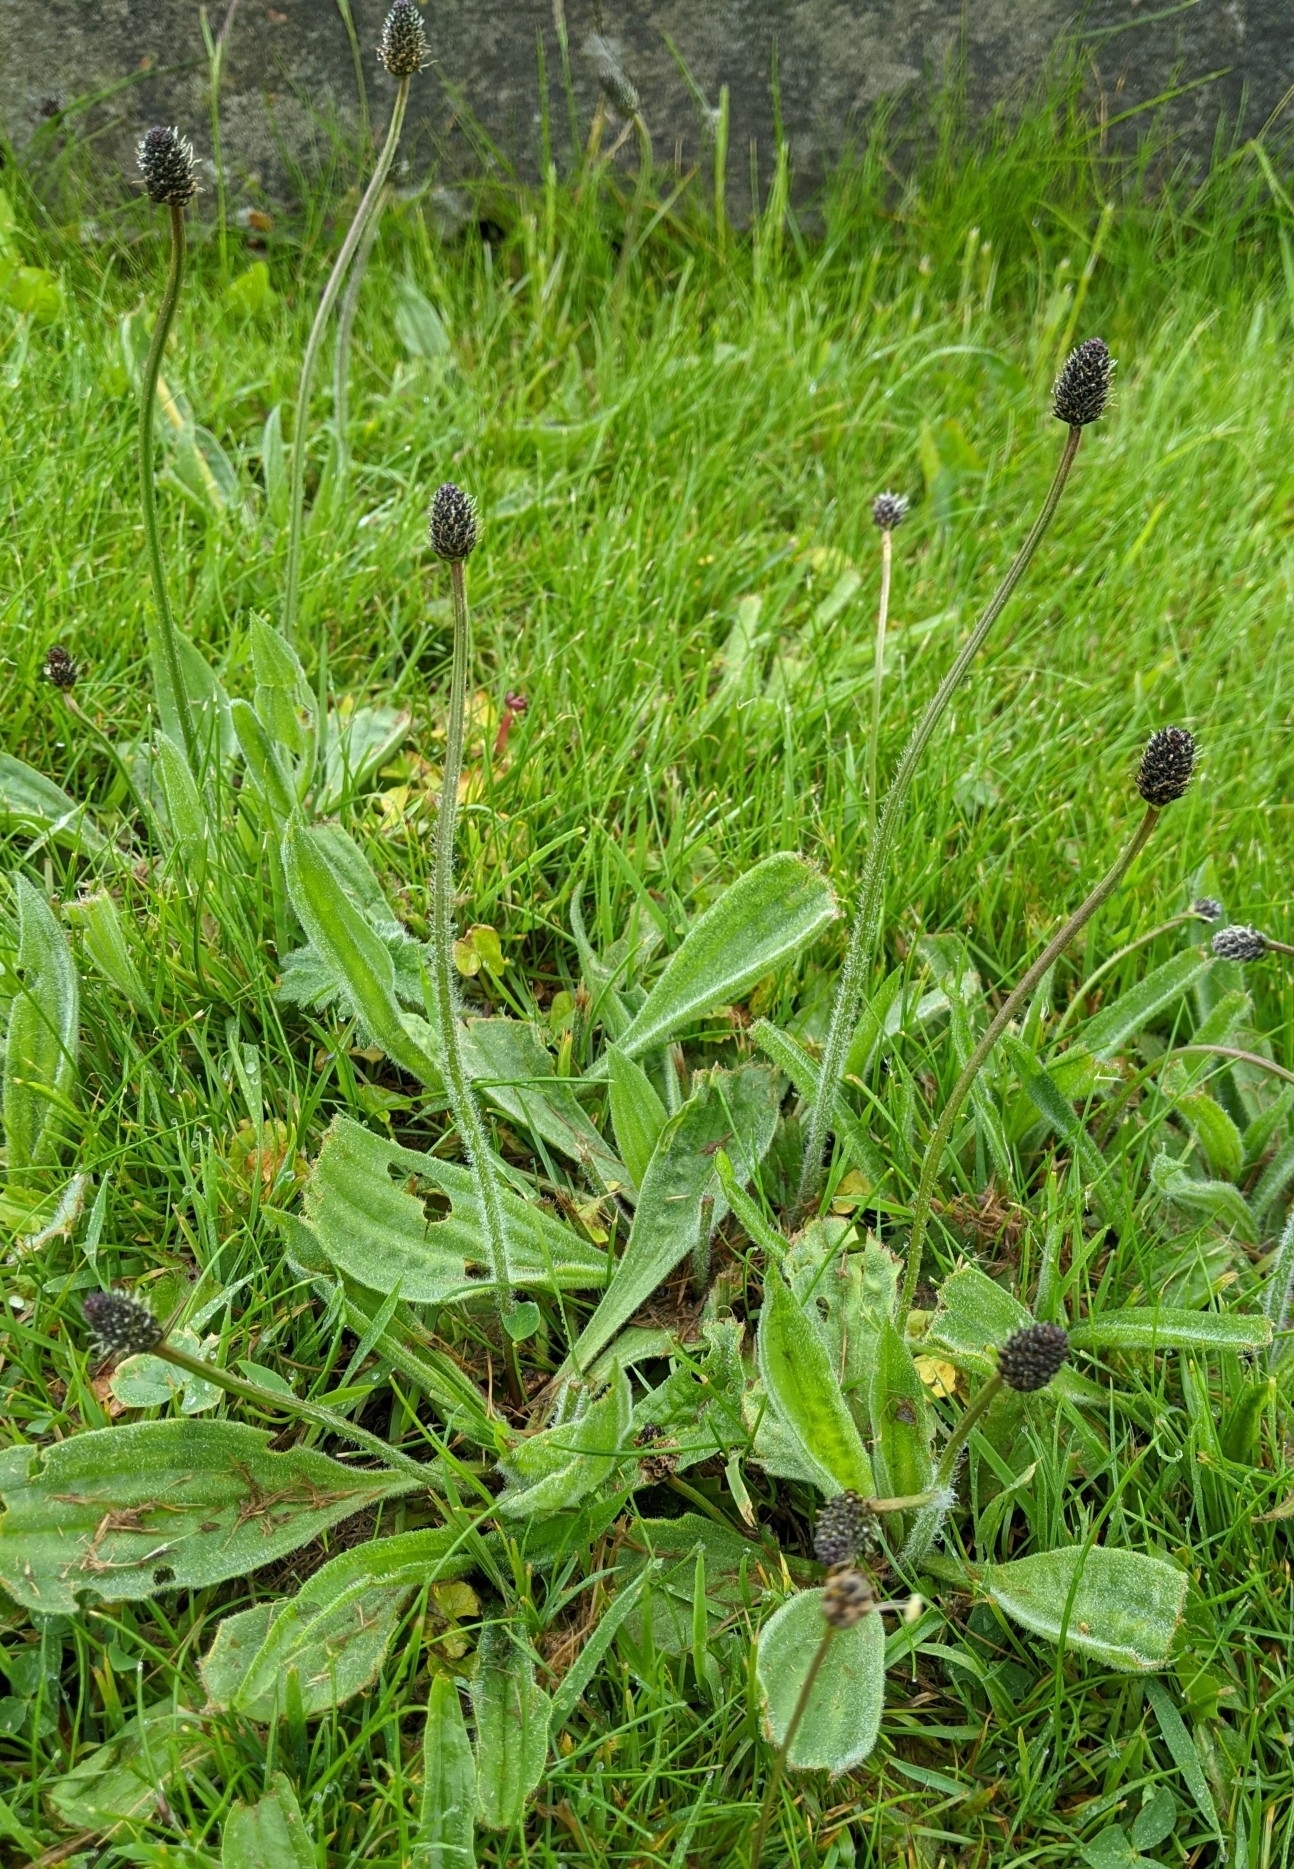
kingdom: Plantae
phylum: Tracheophyta
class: Magnoliopsida
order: Lamiales
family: Plantaginaceae
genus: Plantago
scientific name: Plantago lanceolata
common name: Ribwort plantain
